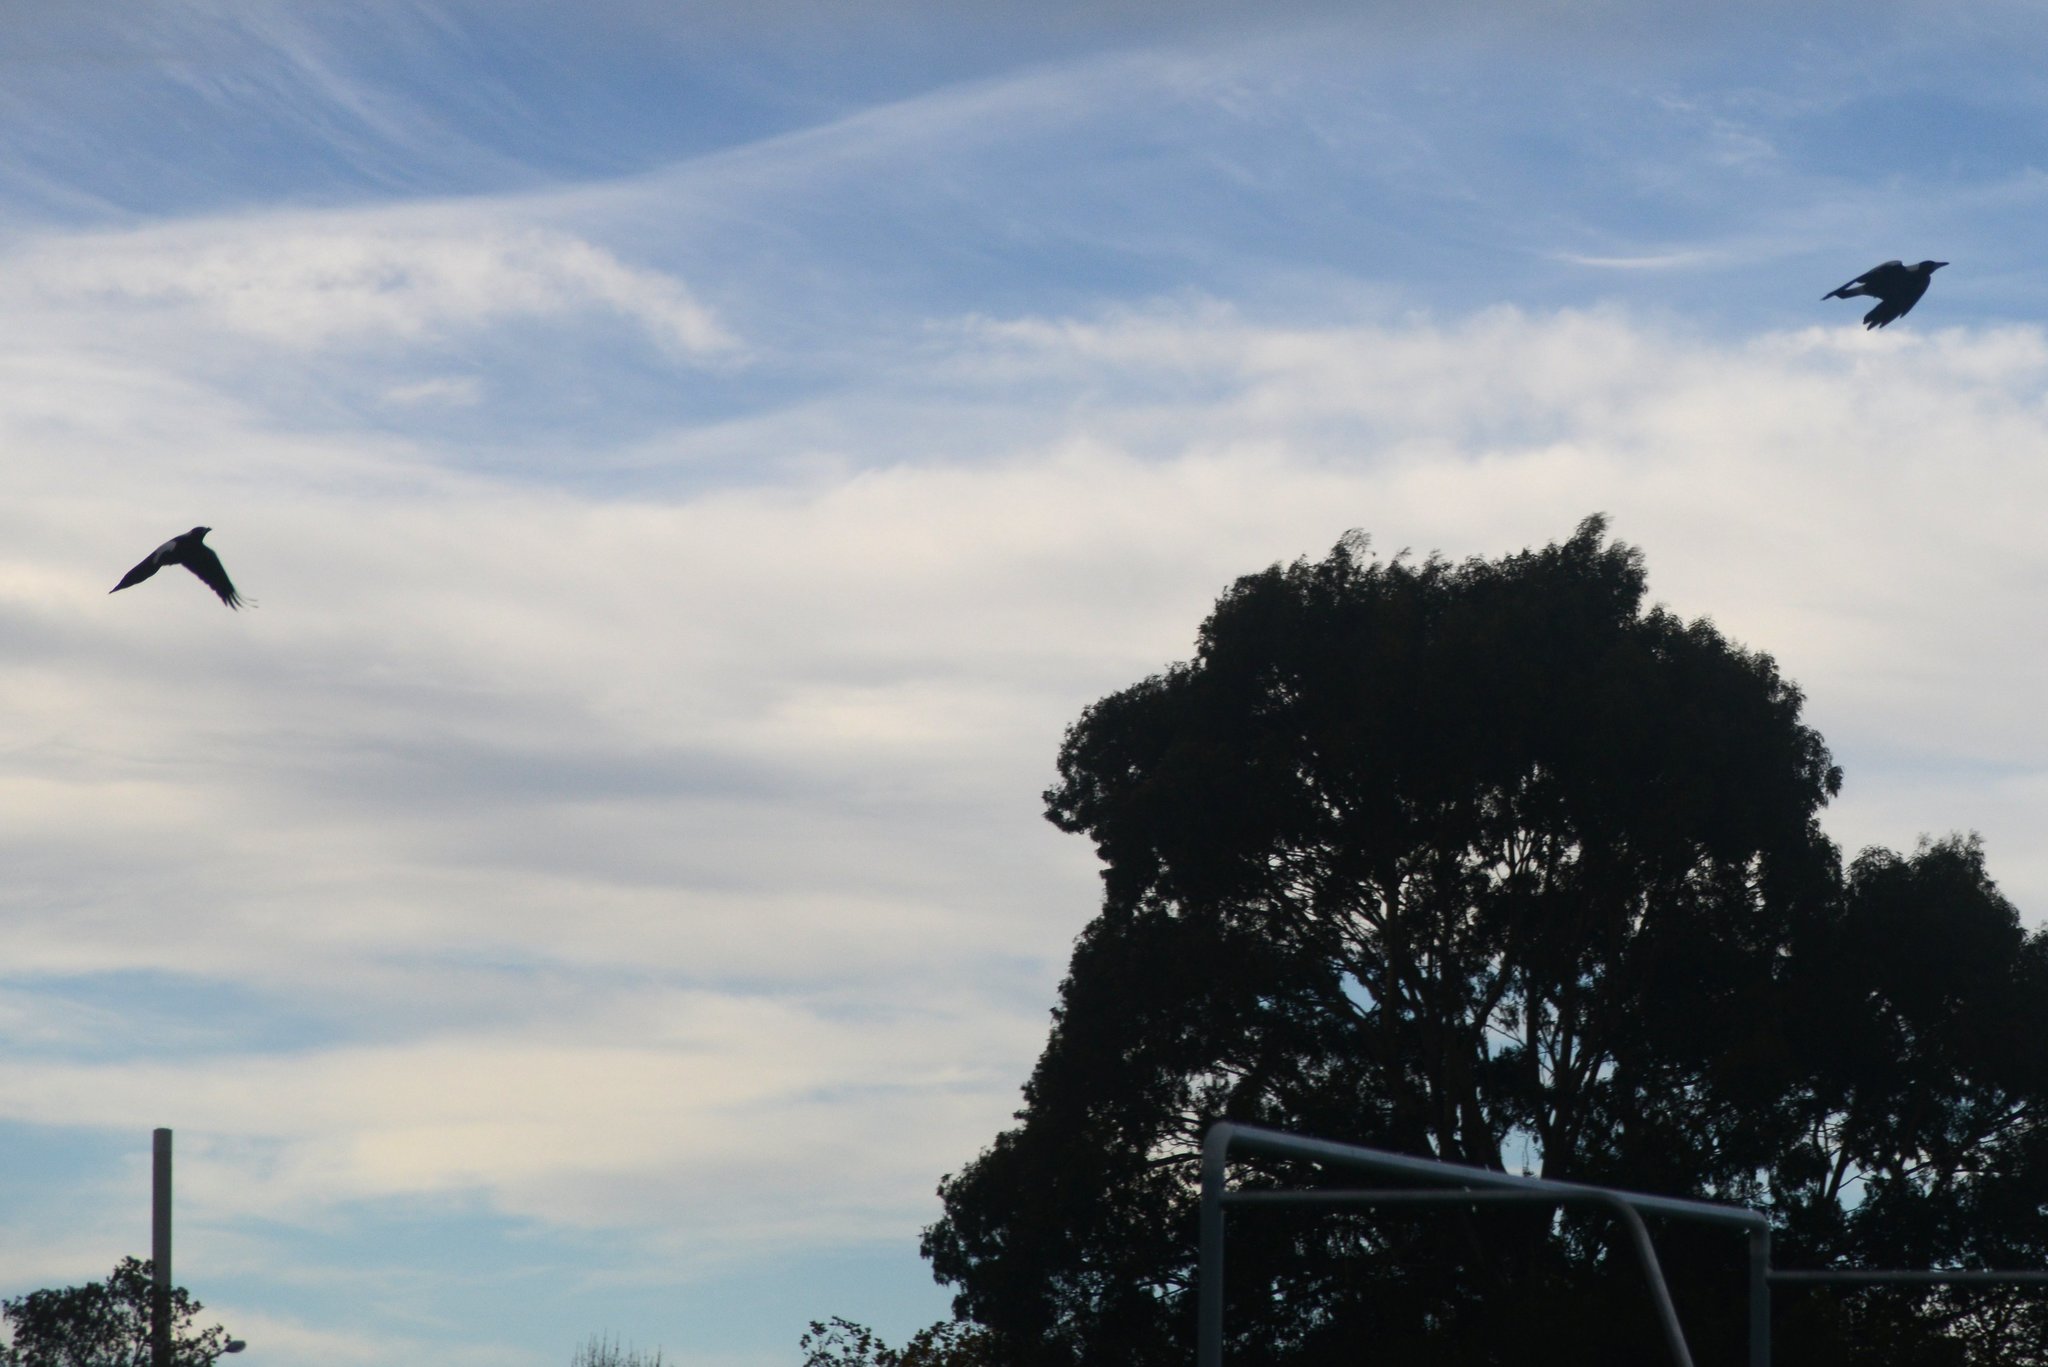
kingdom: Animalia
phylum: Chordata
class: Aves
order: Passeriformes
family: Cracticidae
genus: Gymnorhina
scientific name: Gymnorhina tibicen
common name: Australian magpie
